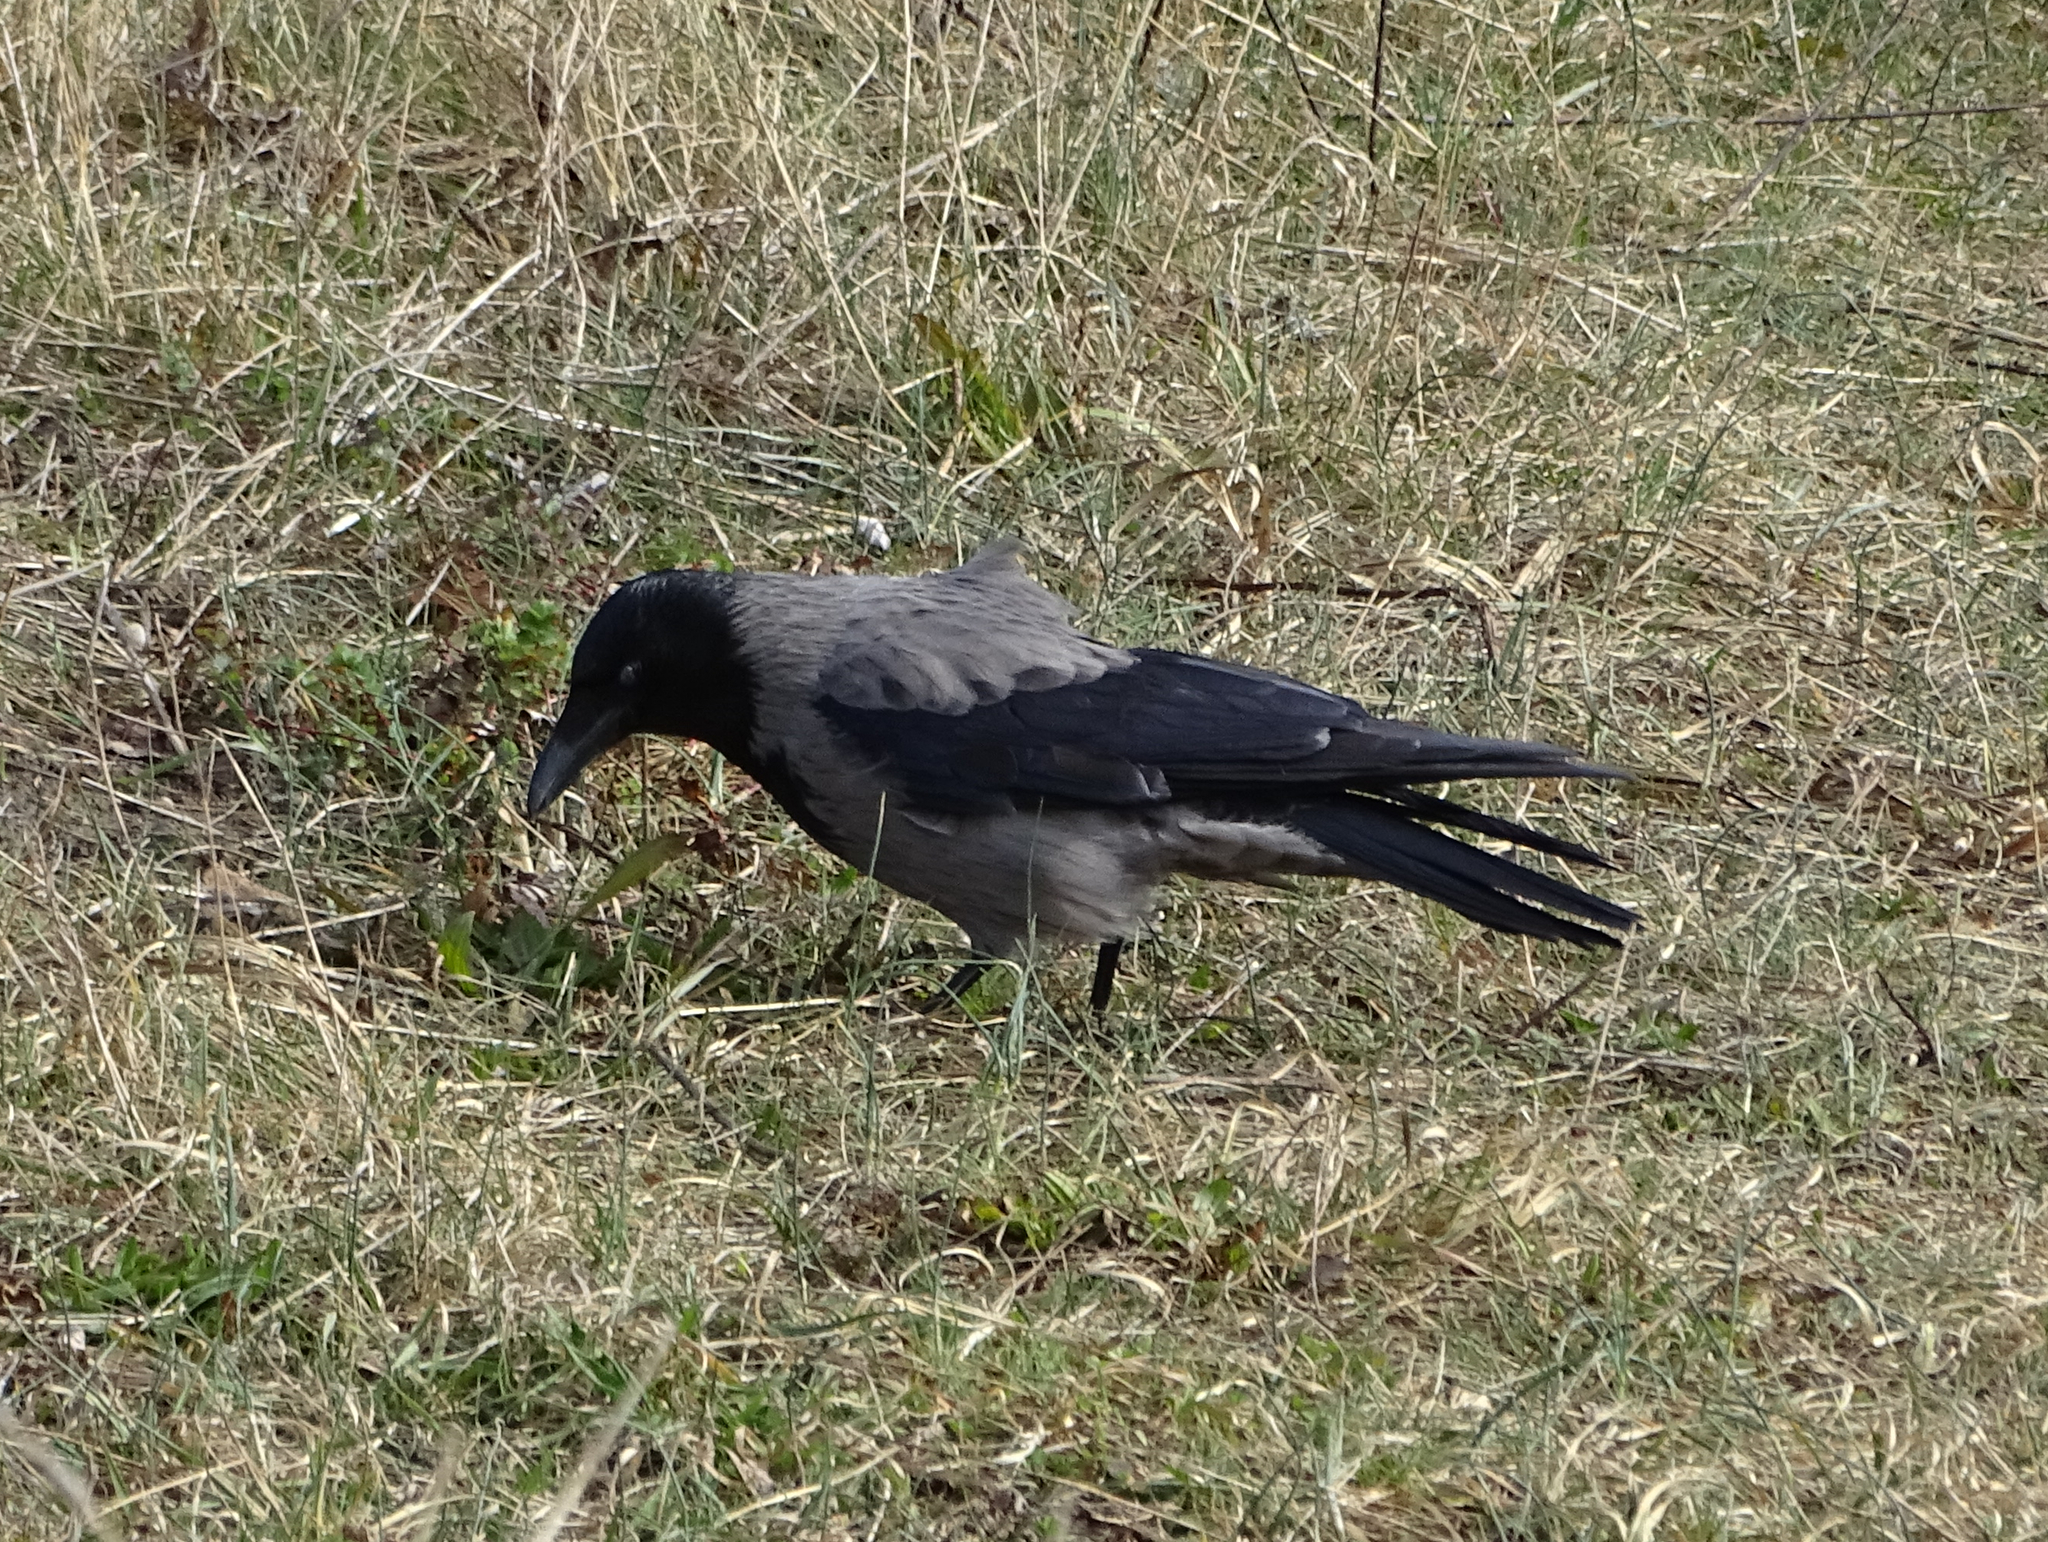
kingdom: Animalia
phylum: Chordata
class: Aves
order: Passeriformes
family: Corvidae
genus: Corvus
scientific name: Corvus
